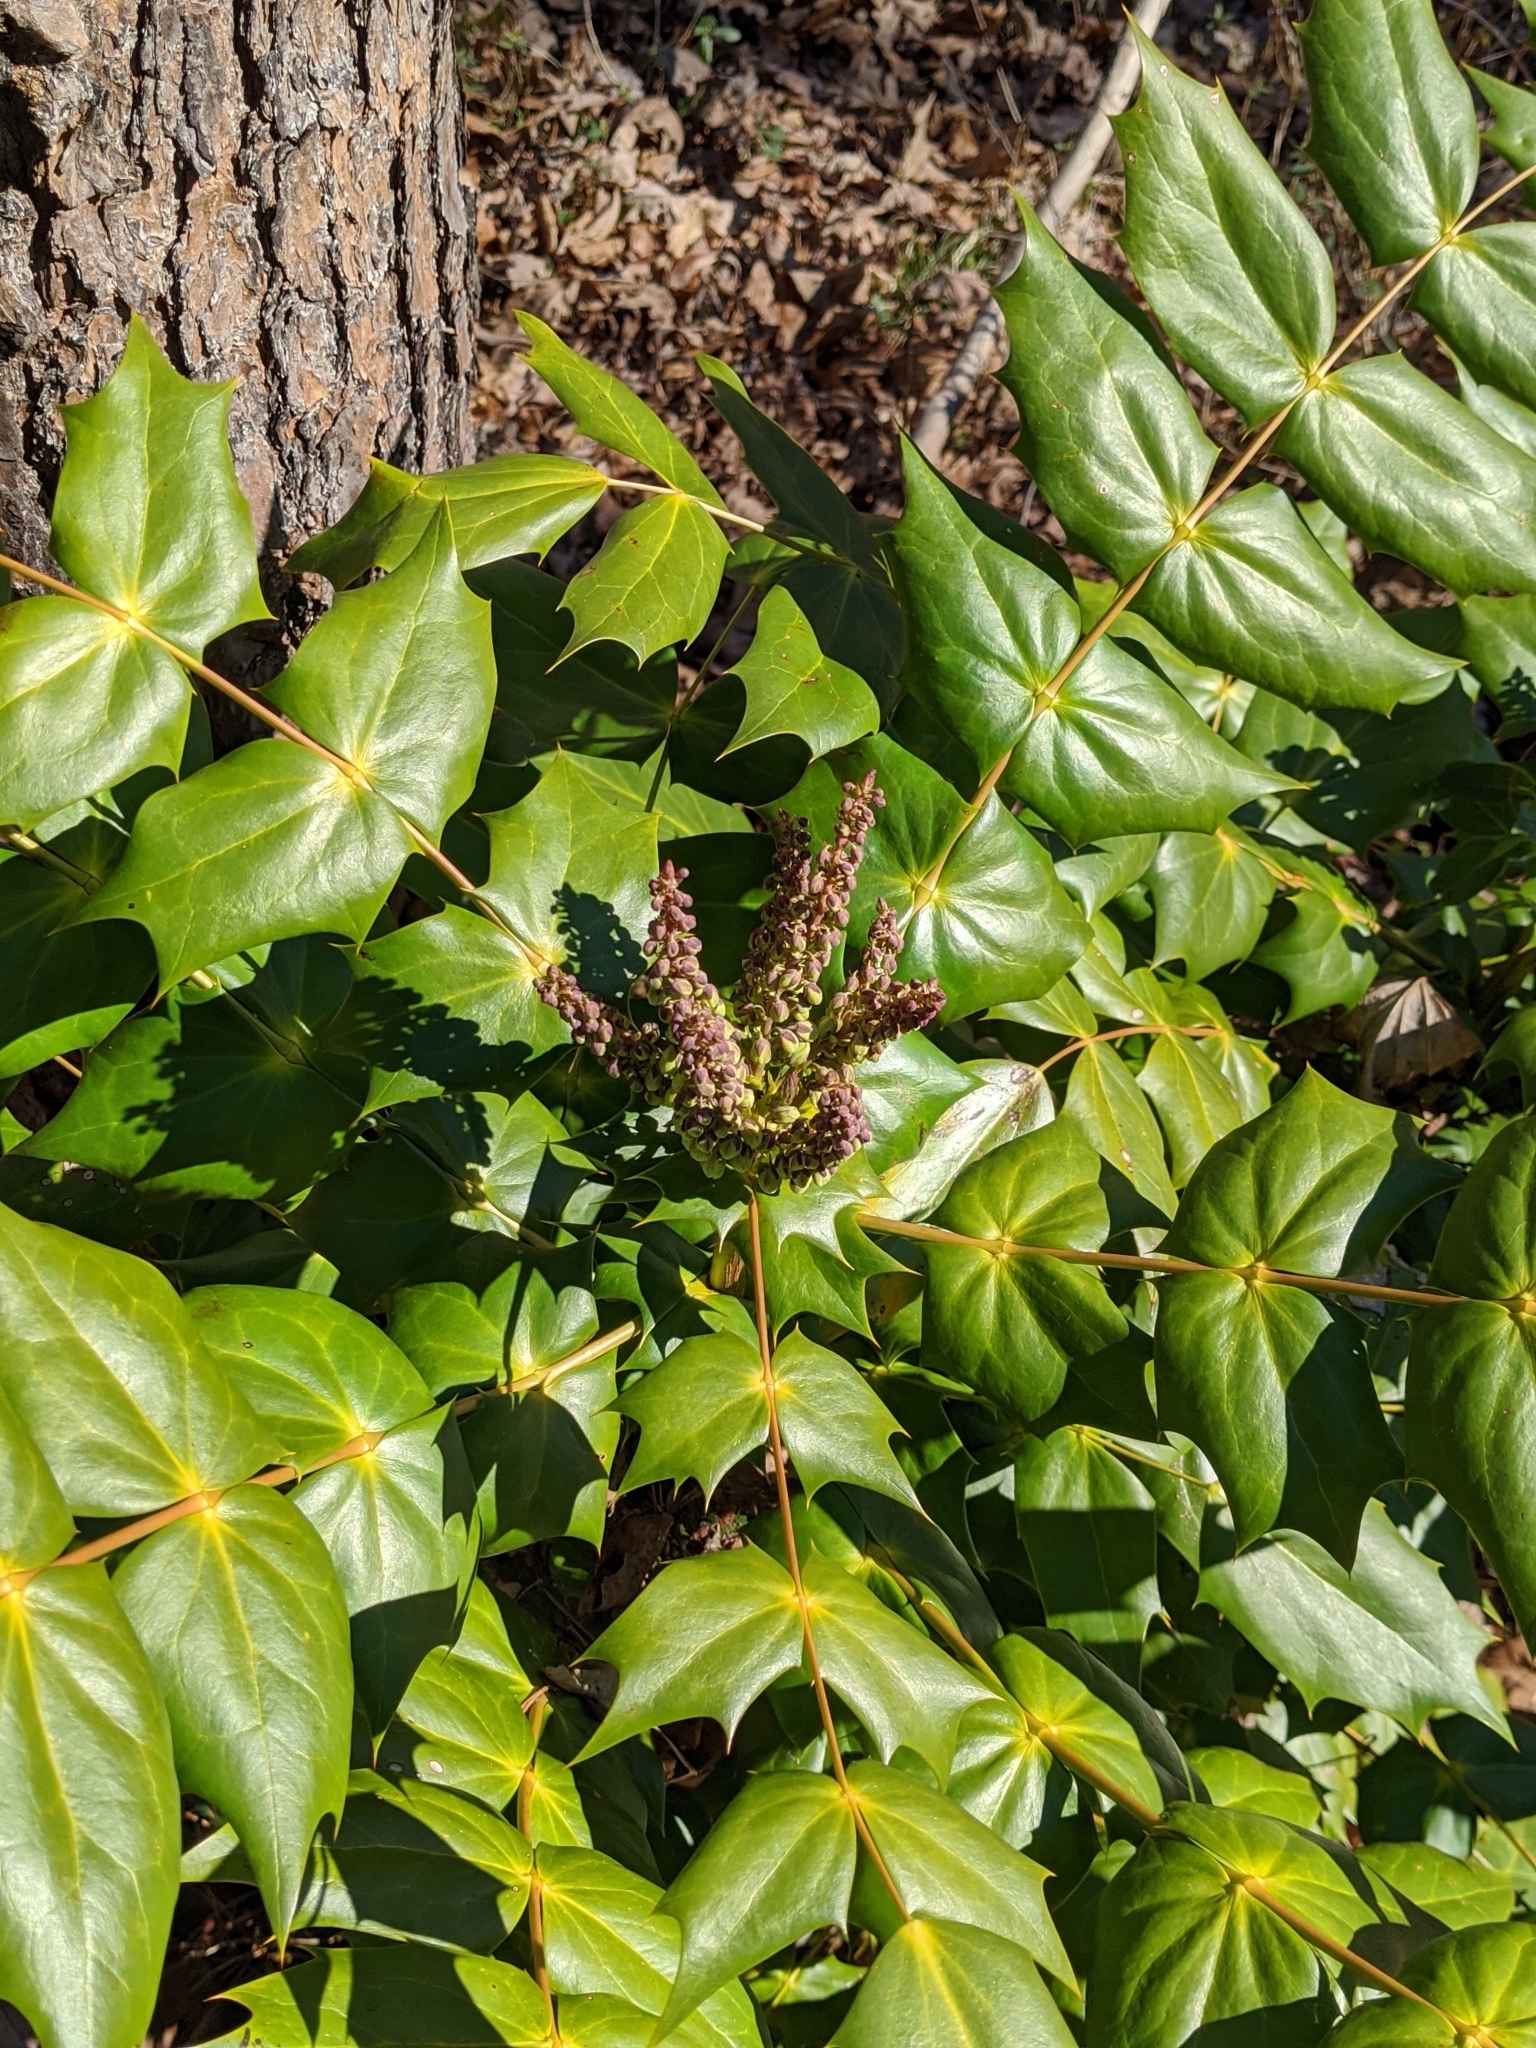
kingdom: Plantae
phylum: Tracheophyta
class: Magnoliopsida
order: Ranunculales
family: Berberidaceae
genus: Mahonia
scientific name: Mahonia bealei
